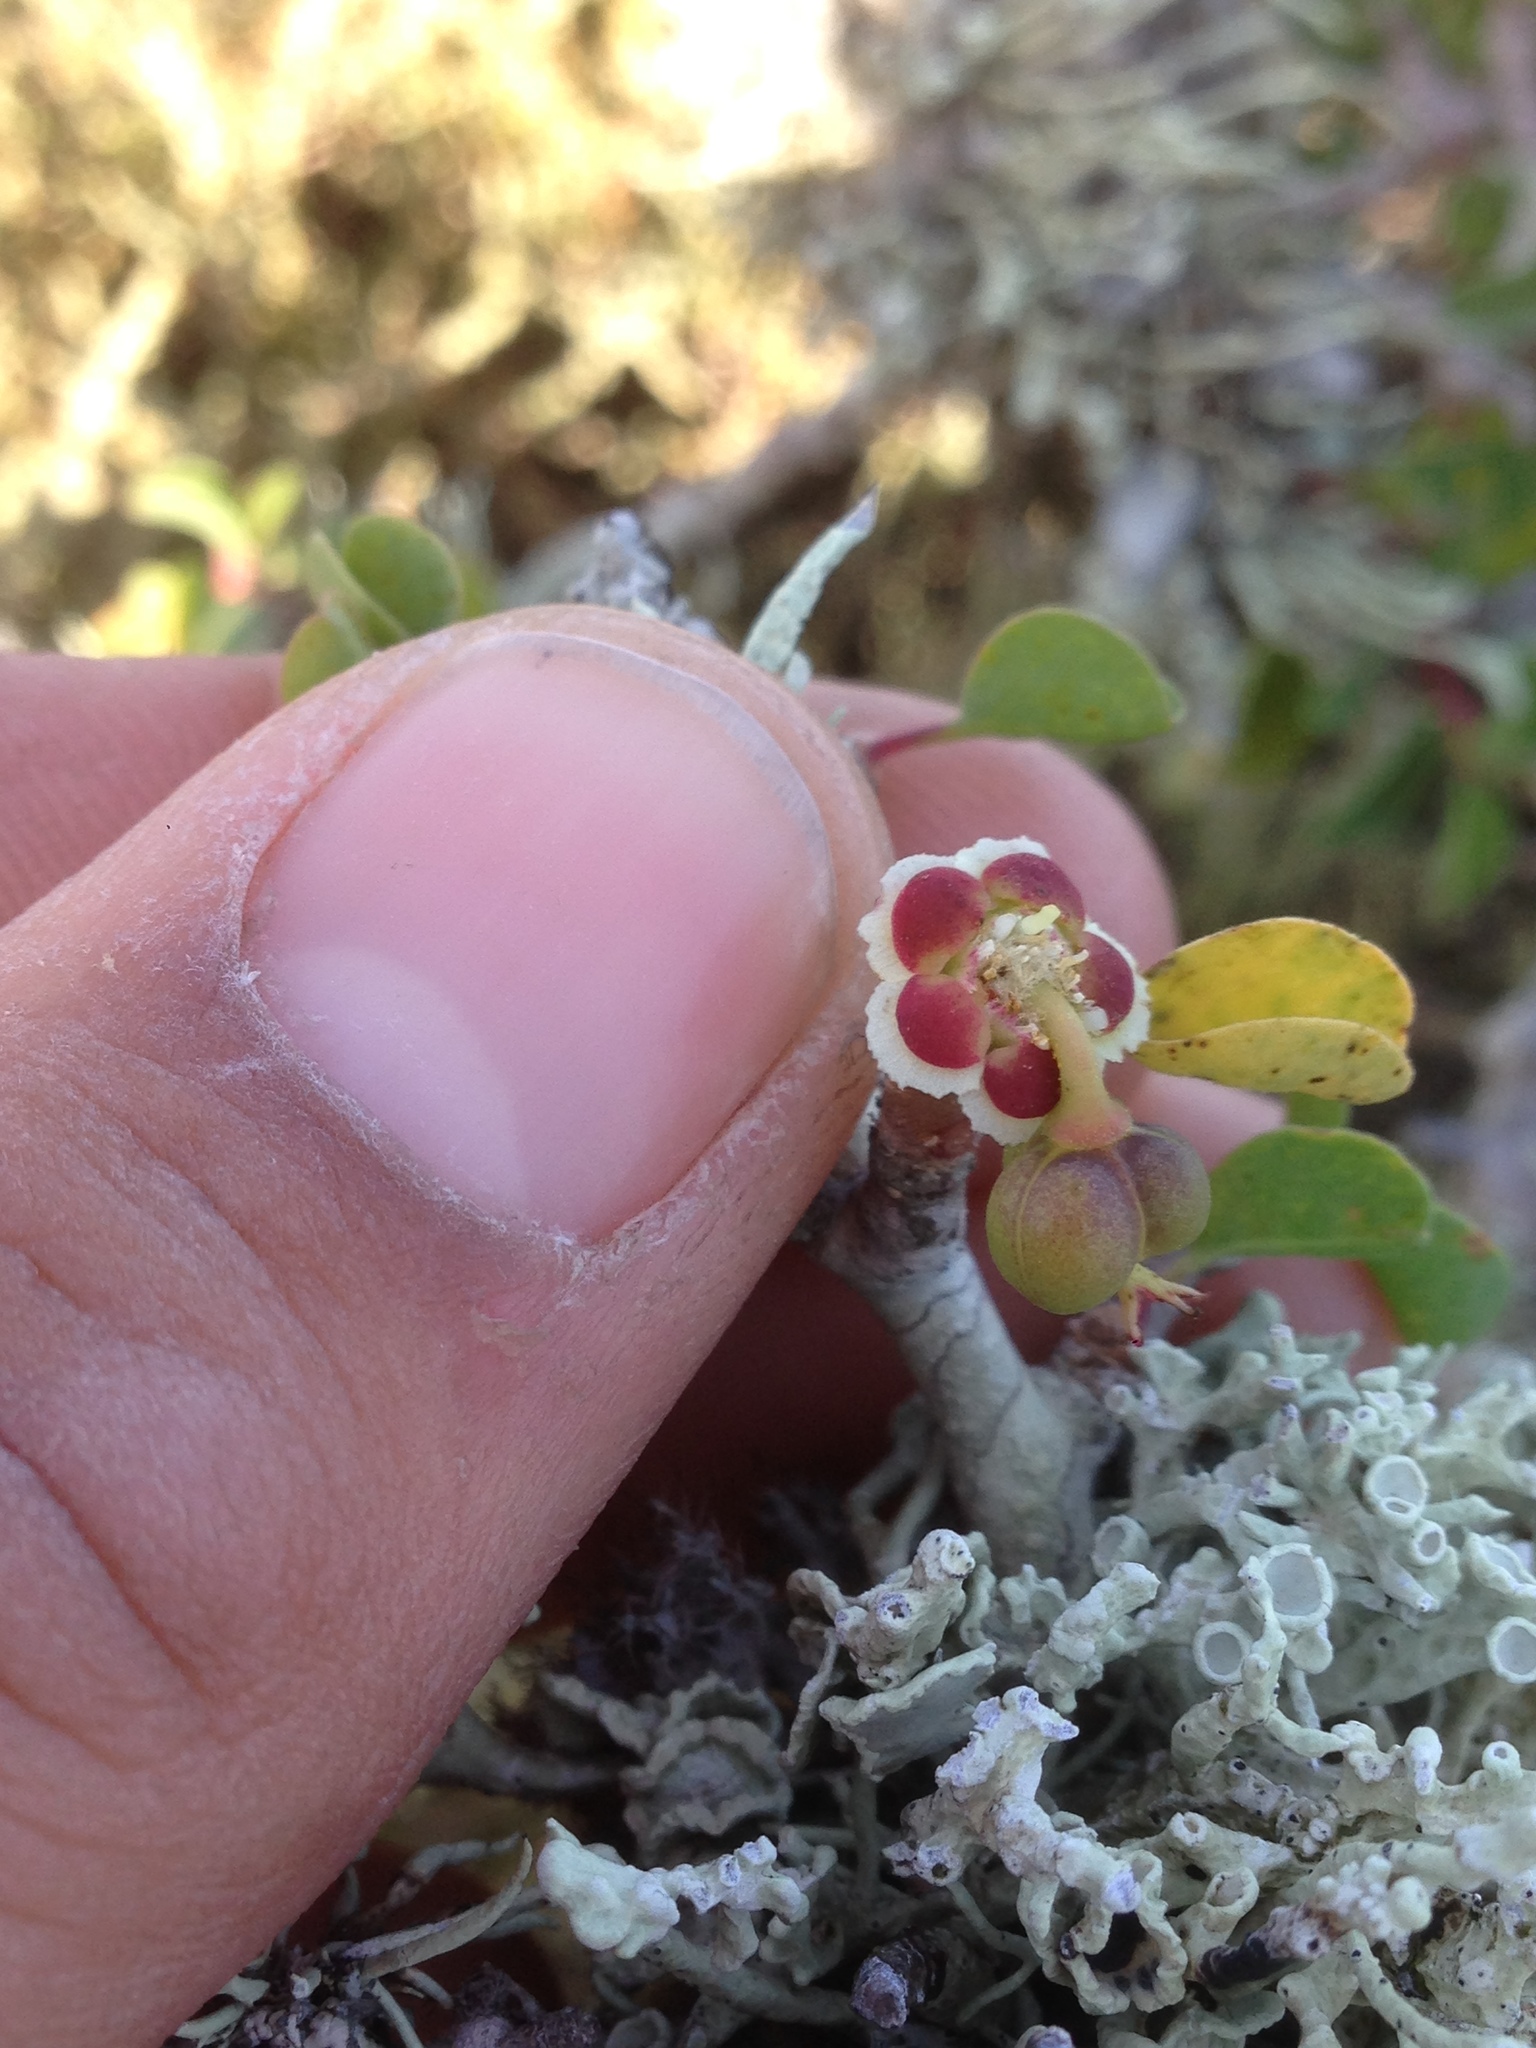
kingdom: Plantae
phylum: Tracheophyta
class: Magnoliopsida
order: Malpighiales
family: Euphorbiaceae
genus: Euphorbia
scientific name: Euphorbia misera
